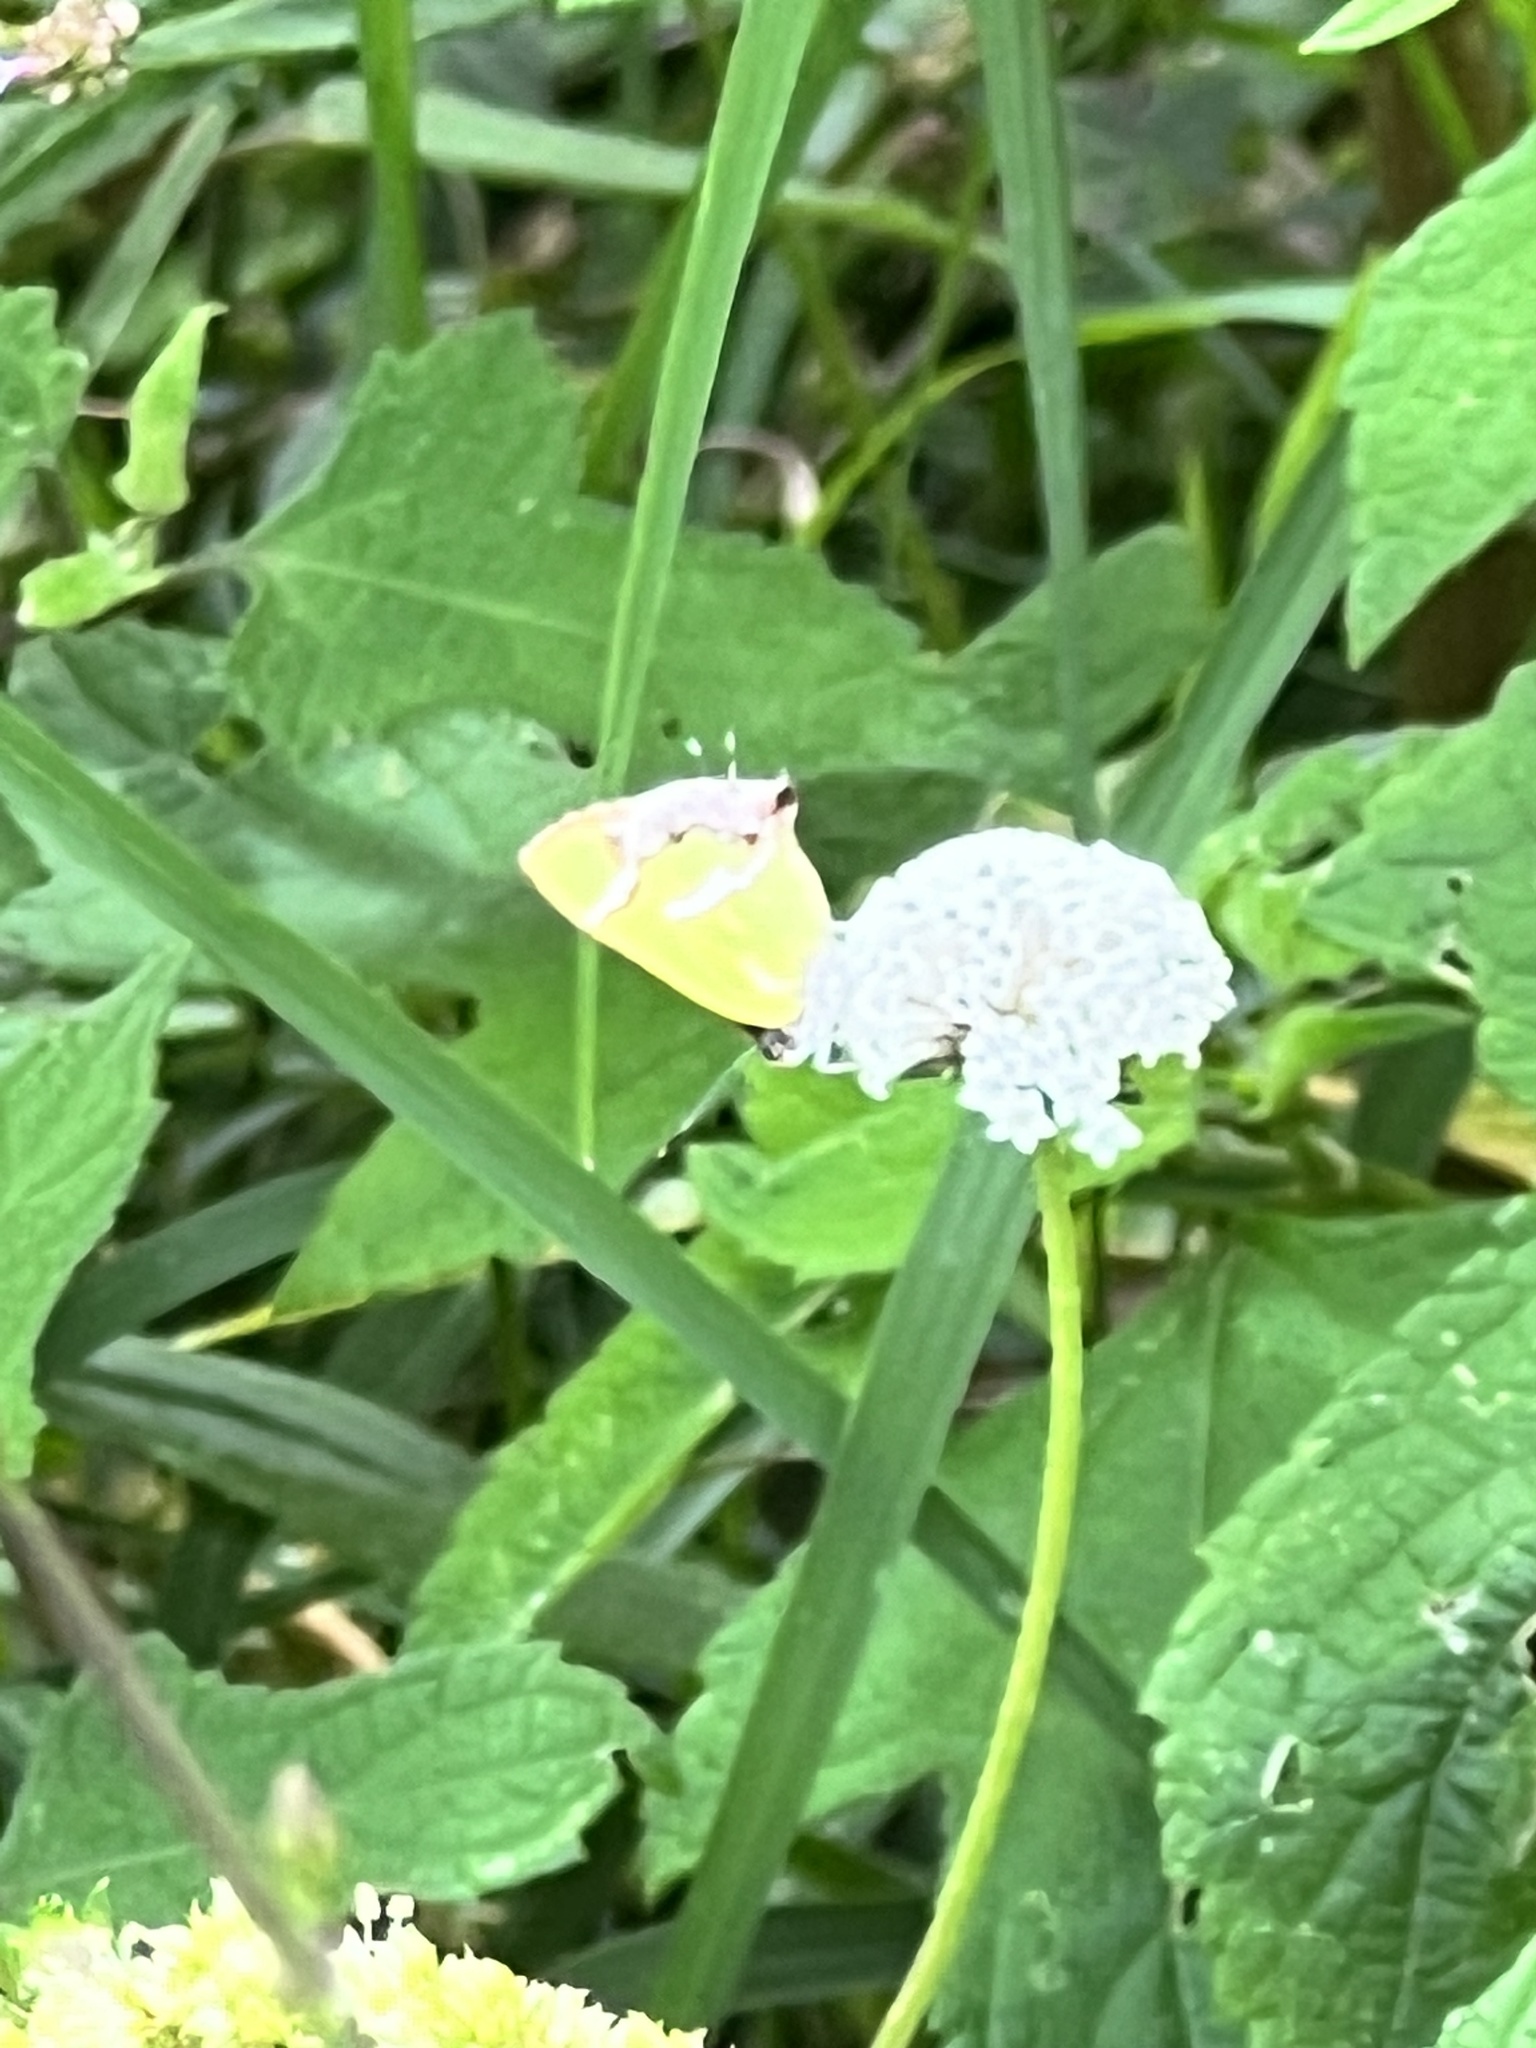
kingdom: Animalia
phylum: Arthropoda
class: Insecta
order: Lepidoptera
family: Lycaenidae
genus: Chlorostrymon
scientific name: Chlorostrymon simaethis
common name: Silver-banded hairstreak
